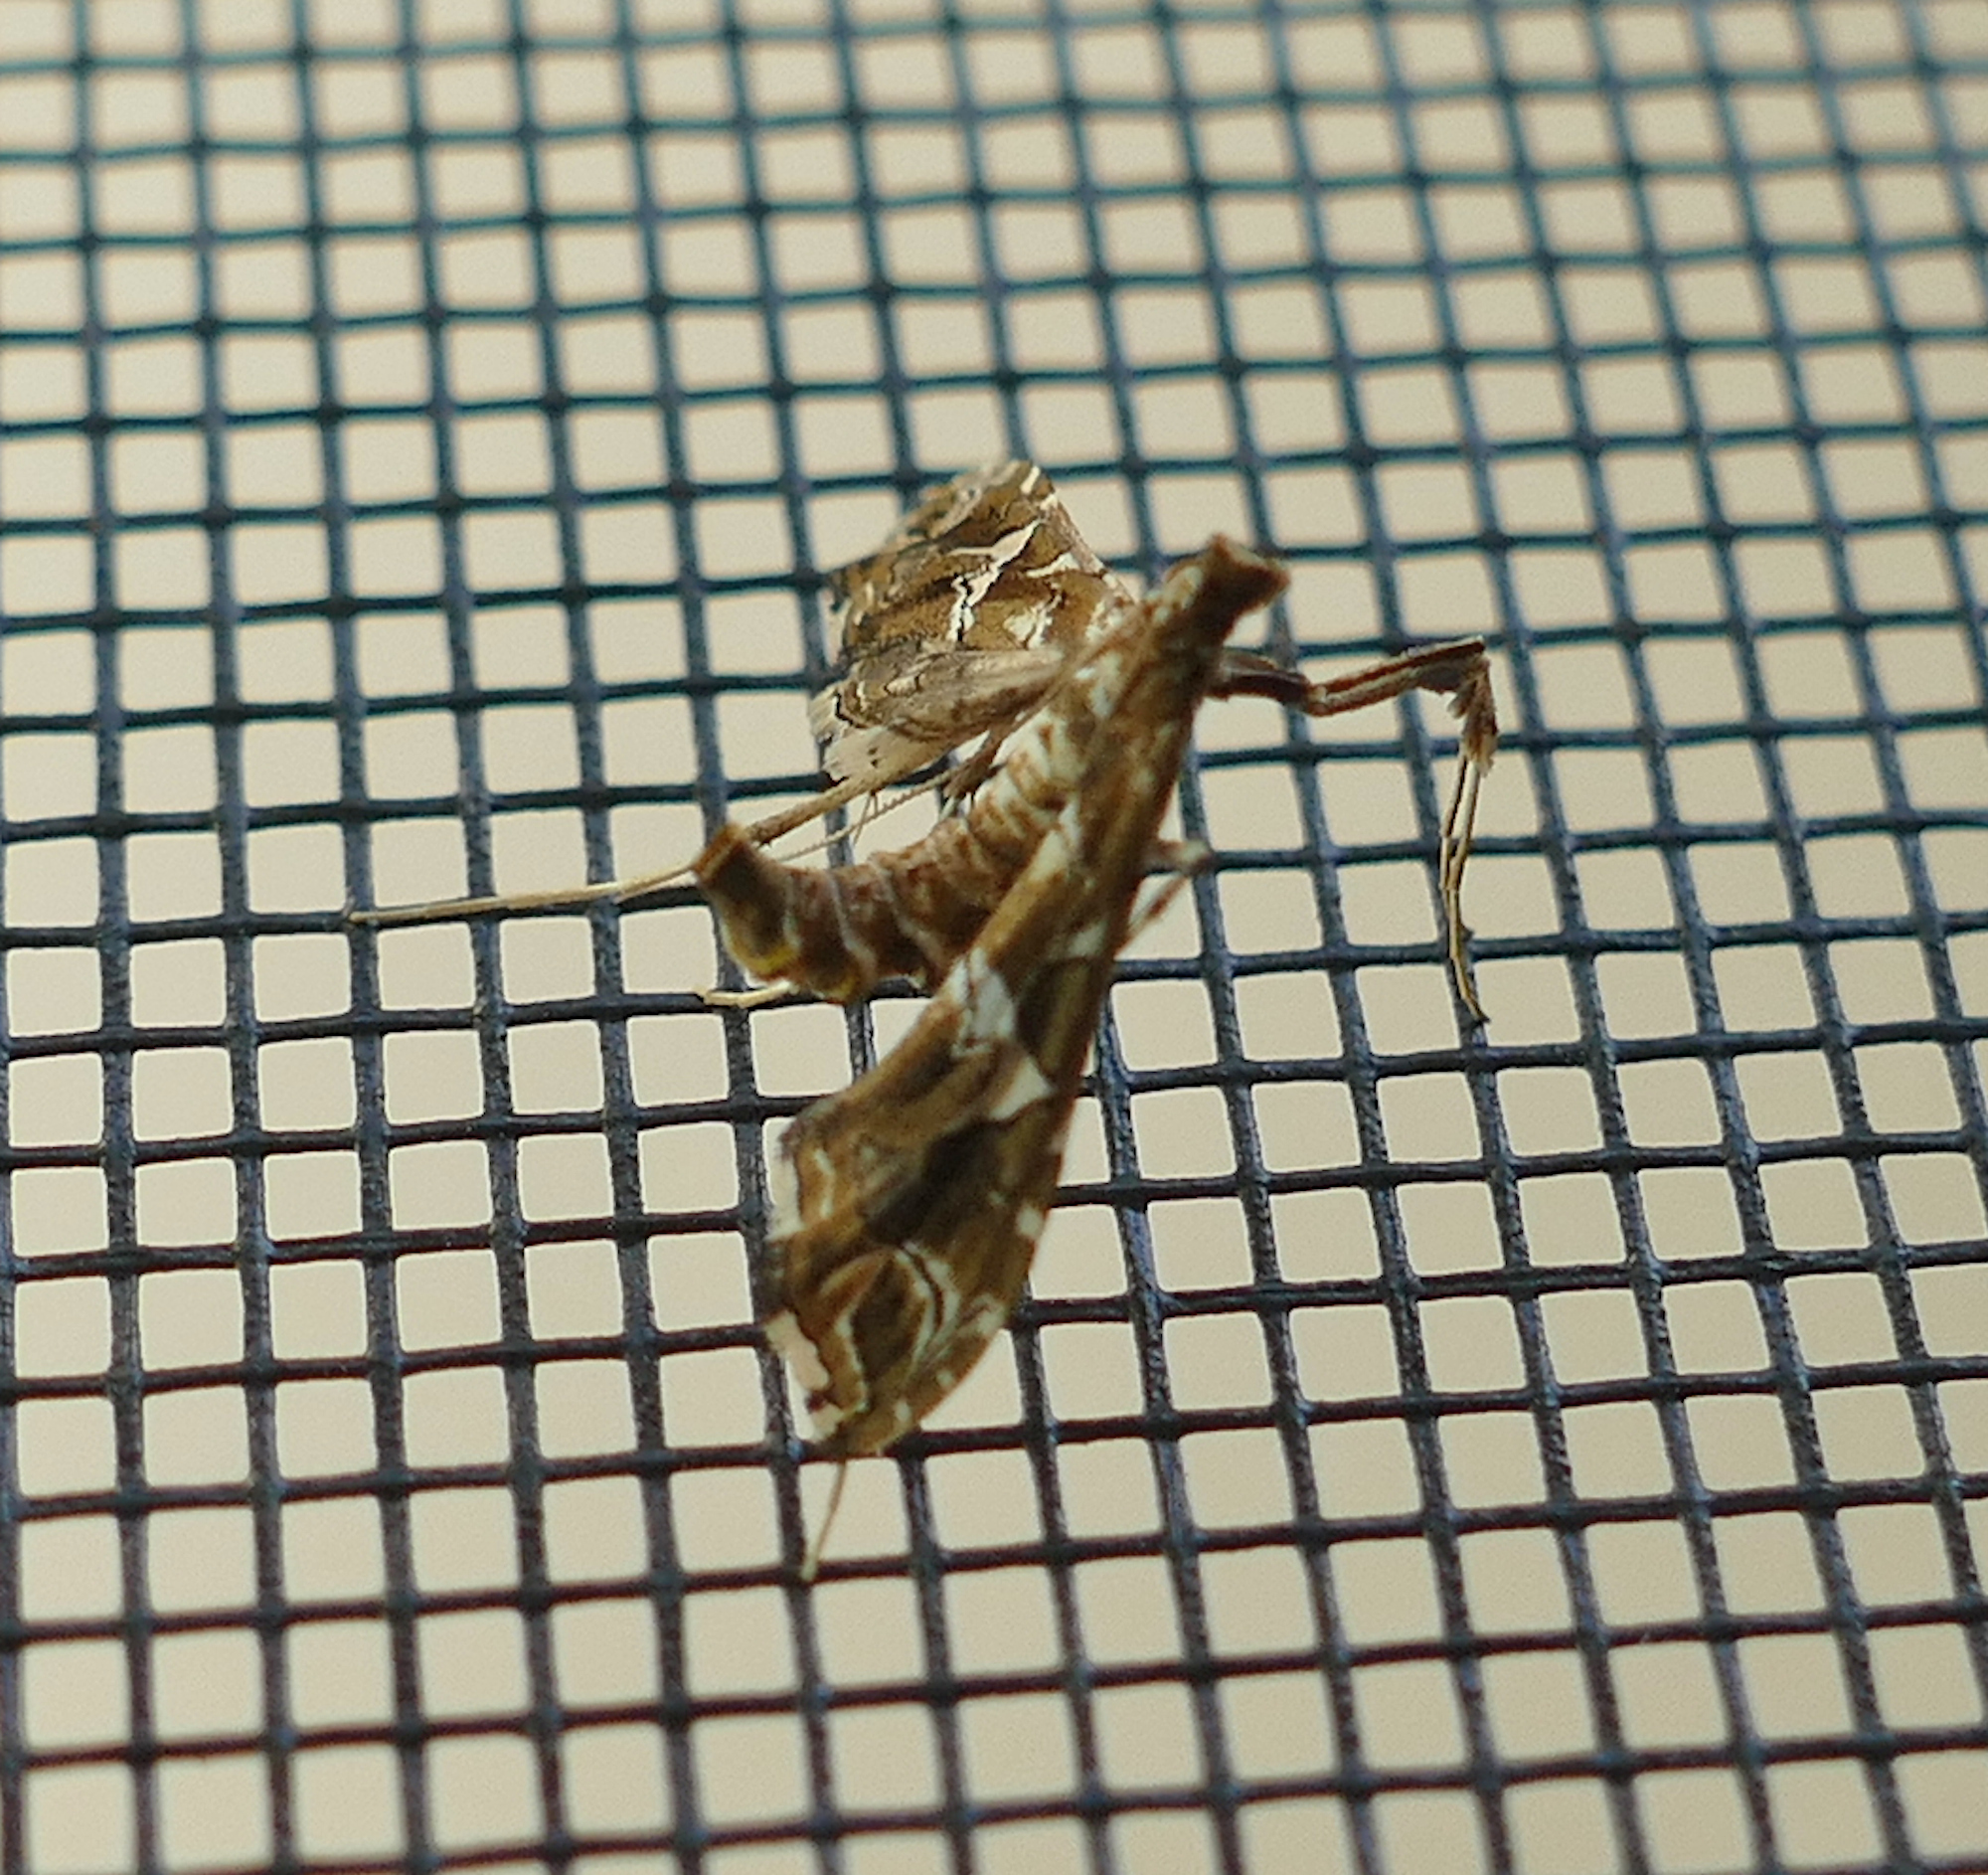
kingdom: Animalia
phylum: Arthropoda
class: Insecta
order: Lepidoptera
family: Crambidae
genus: Lineodes
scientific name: Lineodes vulnifica
